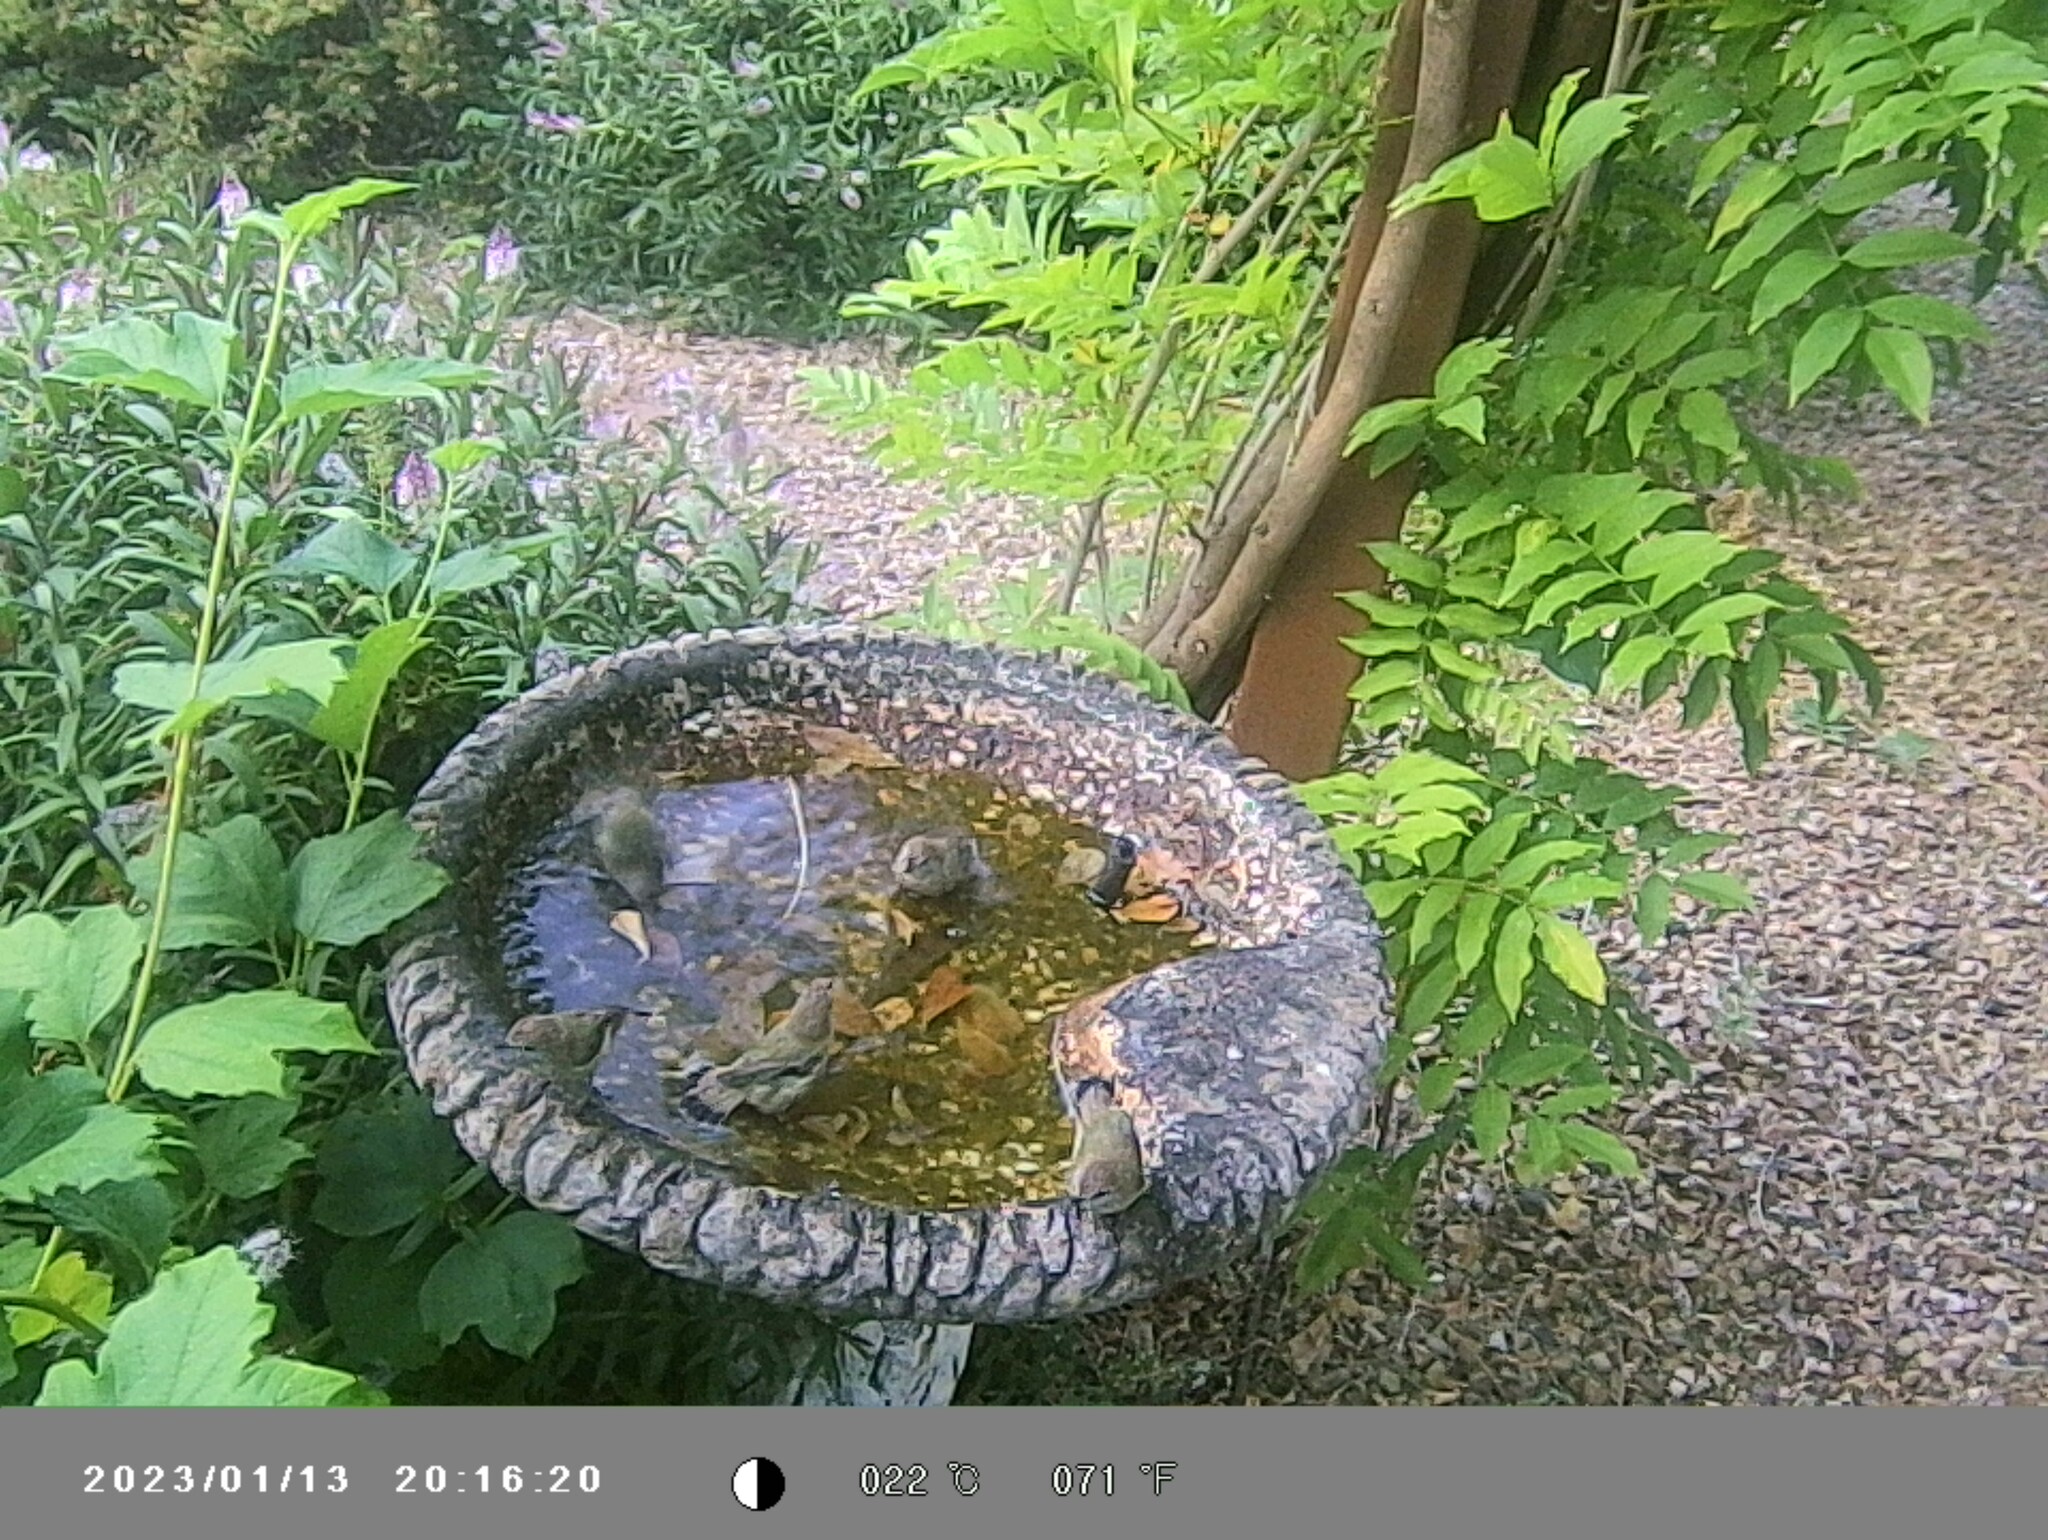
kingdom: Animalia
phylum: Chordata
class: Aves
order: Passeriformes
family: Acanthizidae
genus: Acanthiza
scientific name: Acanthiza lineata
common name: Striated thornbill
